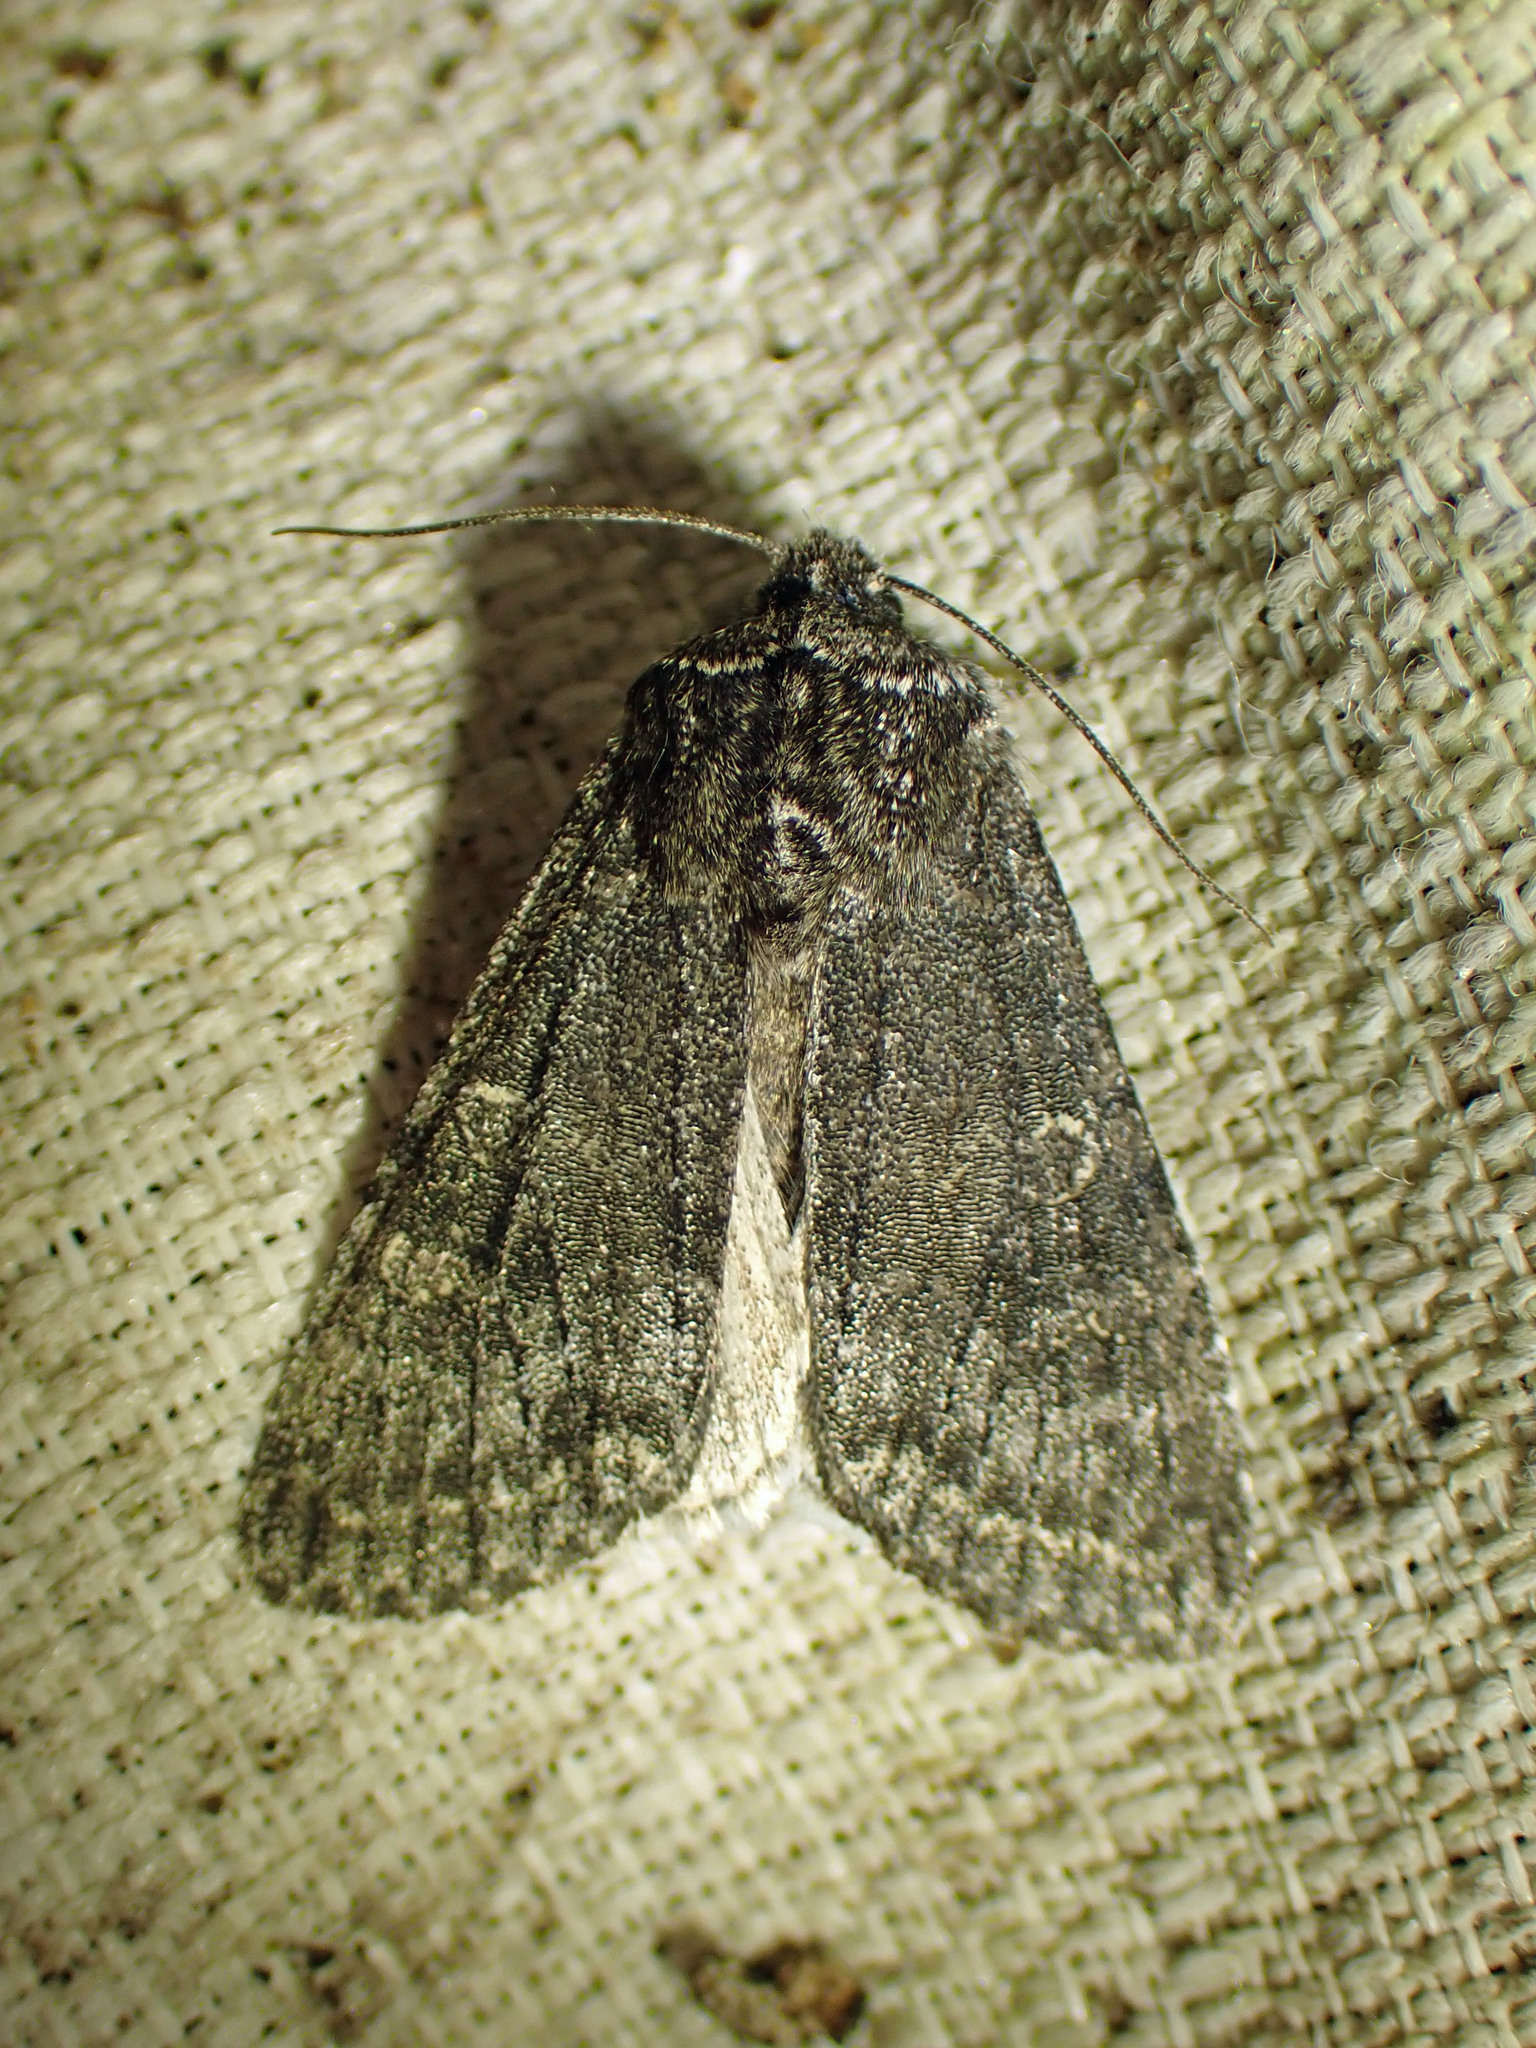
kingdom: Animalia
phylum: Arthropoda
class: Insecta
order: Lepidoptera
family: Noctuidae
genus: Egira
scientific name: Egira dolosa
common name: Lined black aspen cat.
